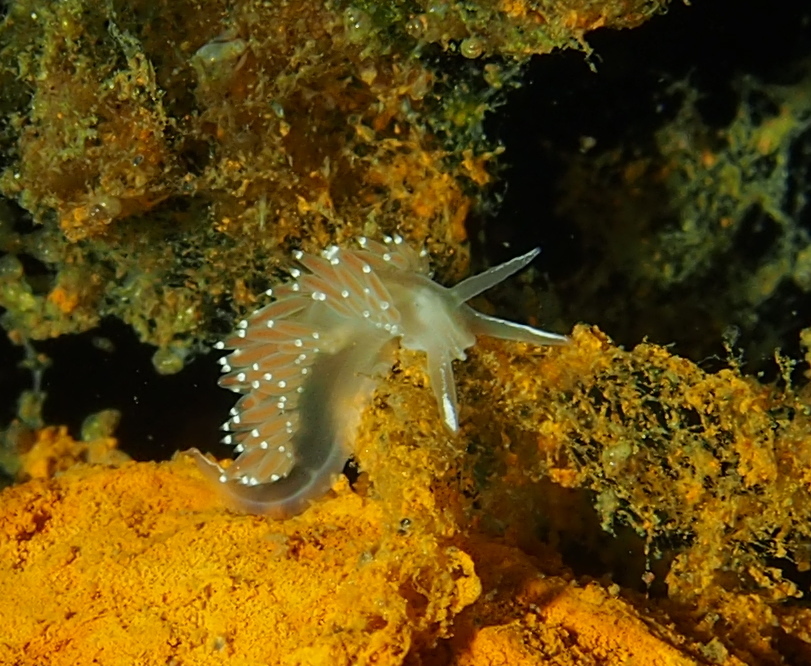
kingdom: Animalia
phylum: Mollusca
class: Gastropoda
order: Nudibranchia
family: Coryphellidae
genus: Coryphella
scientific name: Coryphella verrucosa
